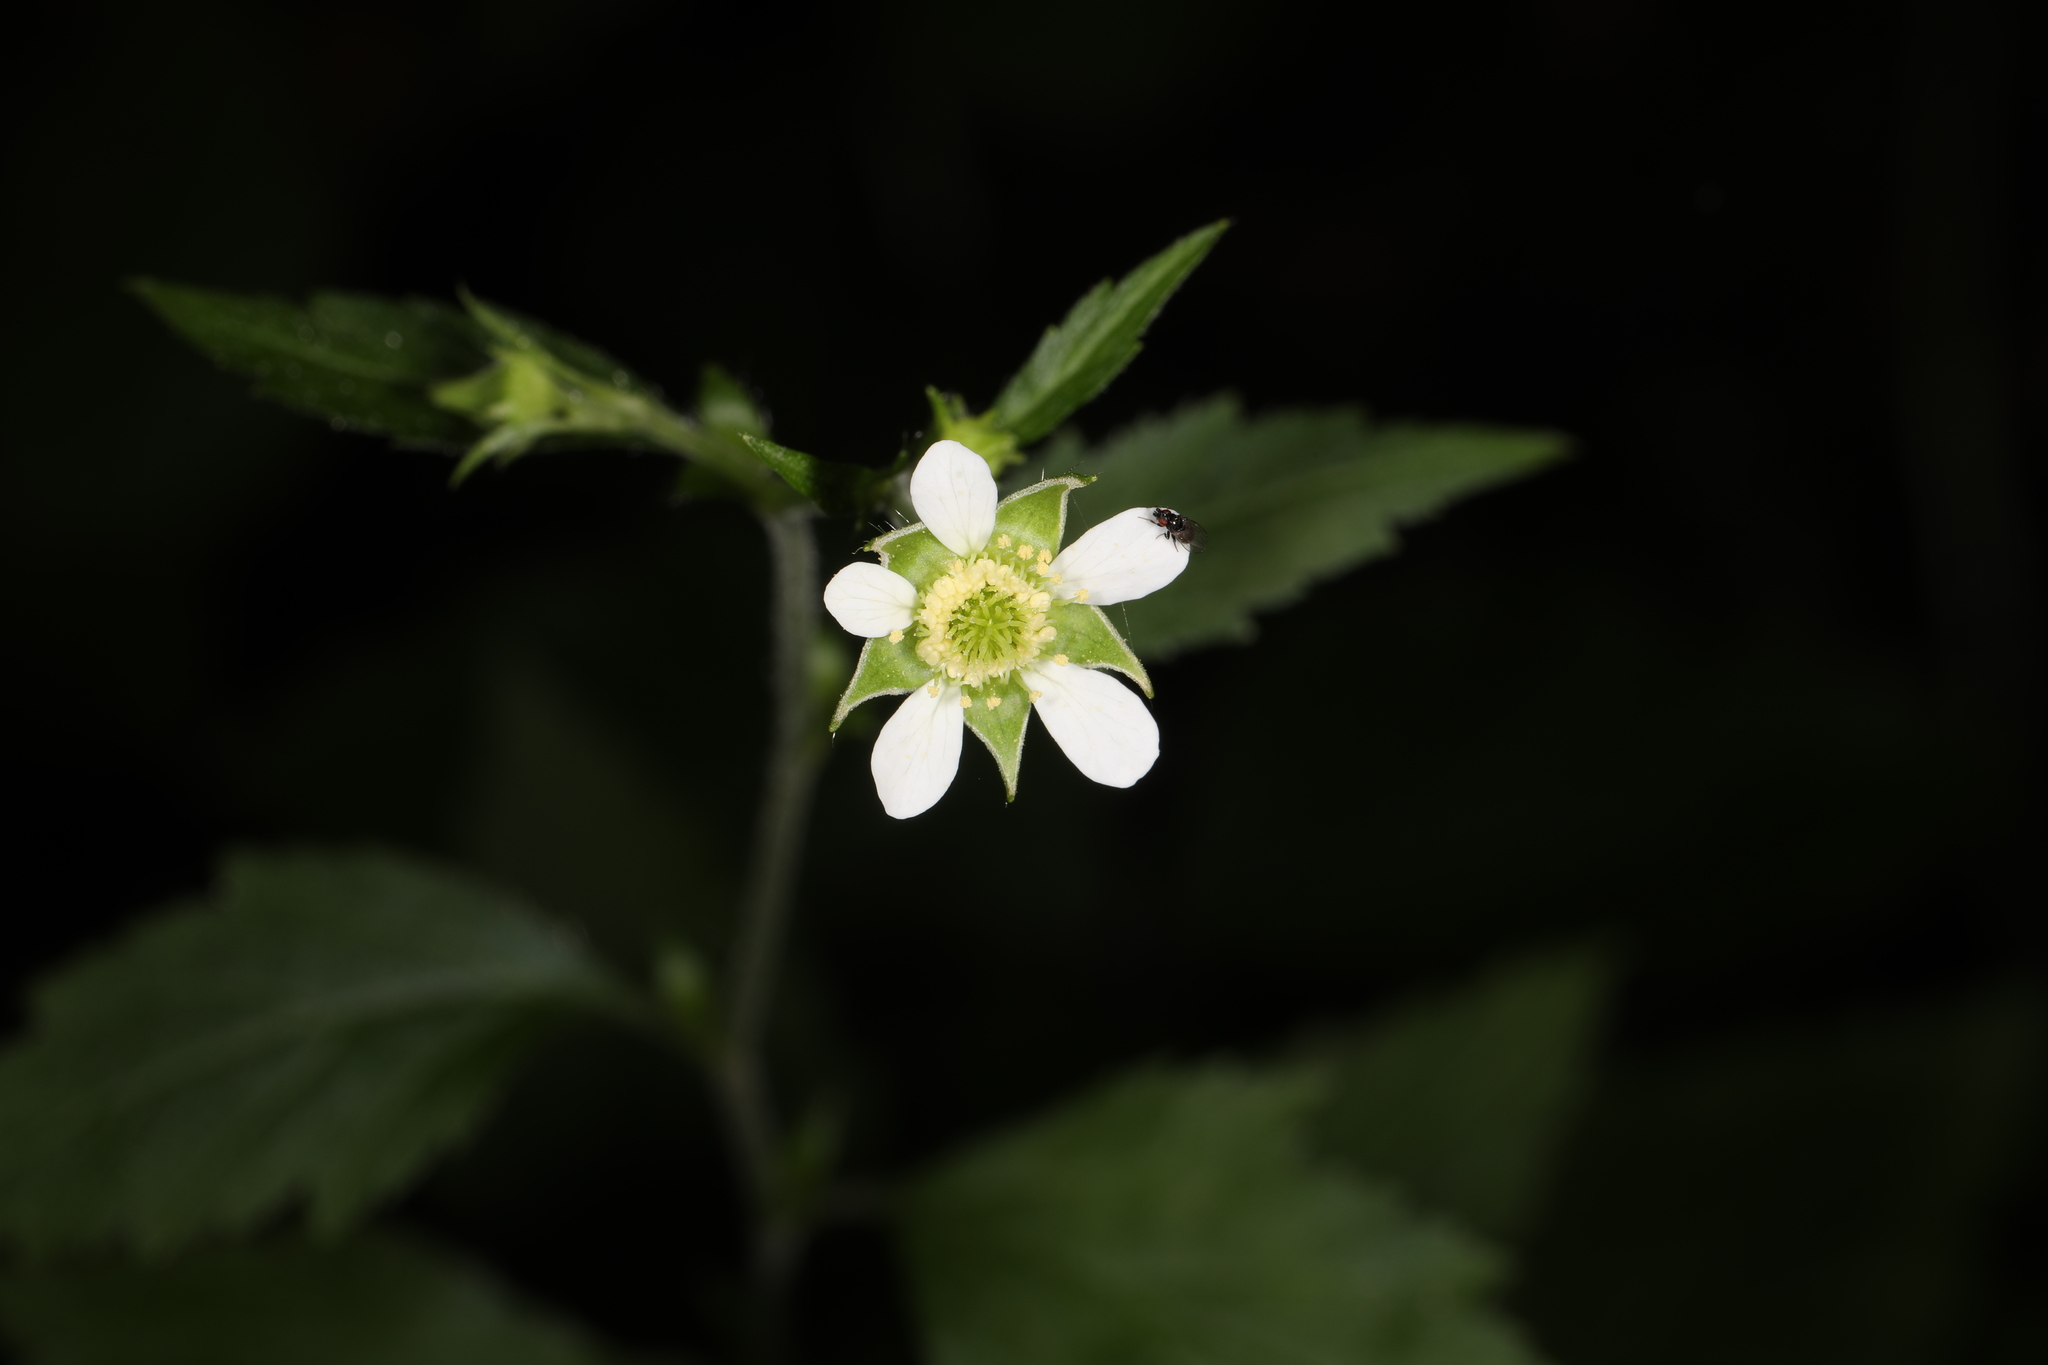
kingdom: Plantae
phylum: Tracheophyta
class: Magnoliopsida
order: Rosales
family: Rosaceae
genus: Geum
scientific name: Geum canadense
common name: White avens
